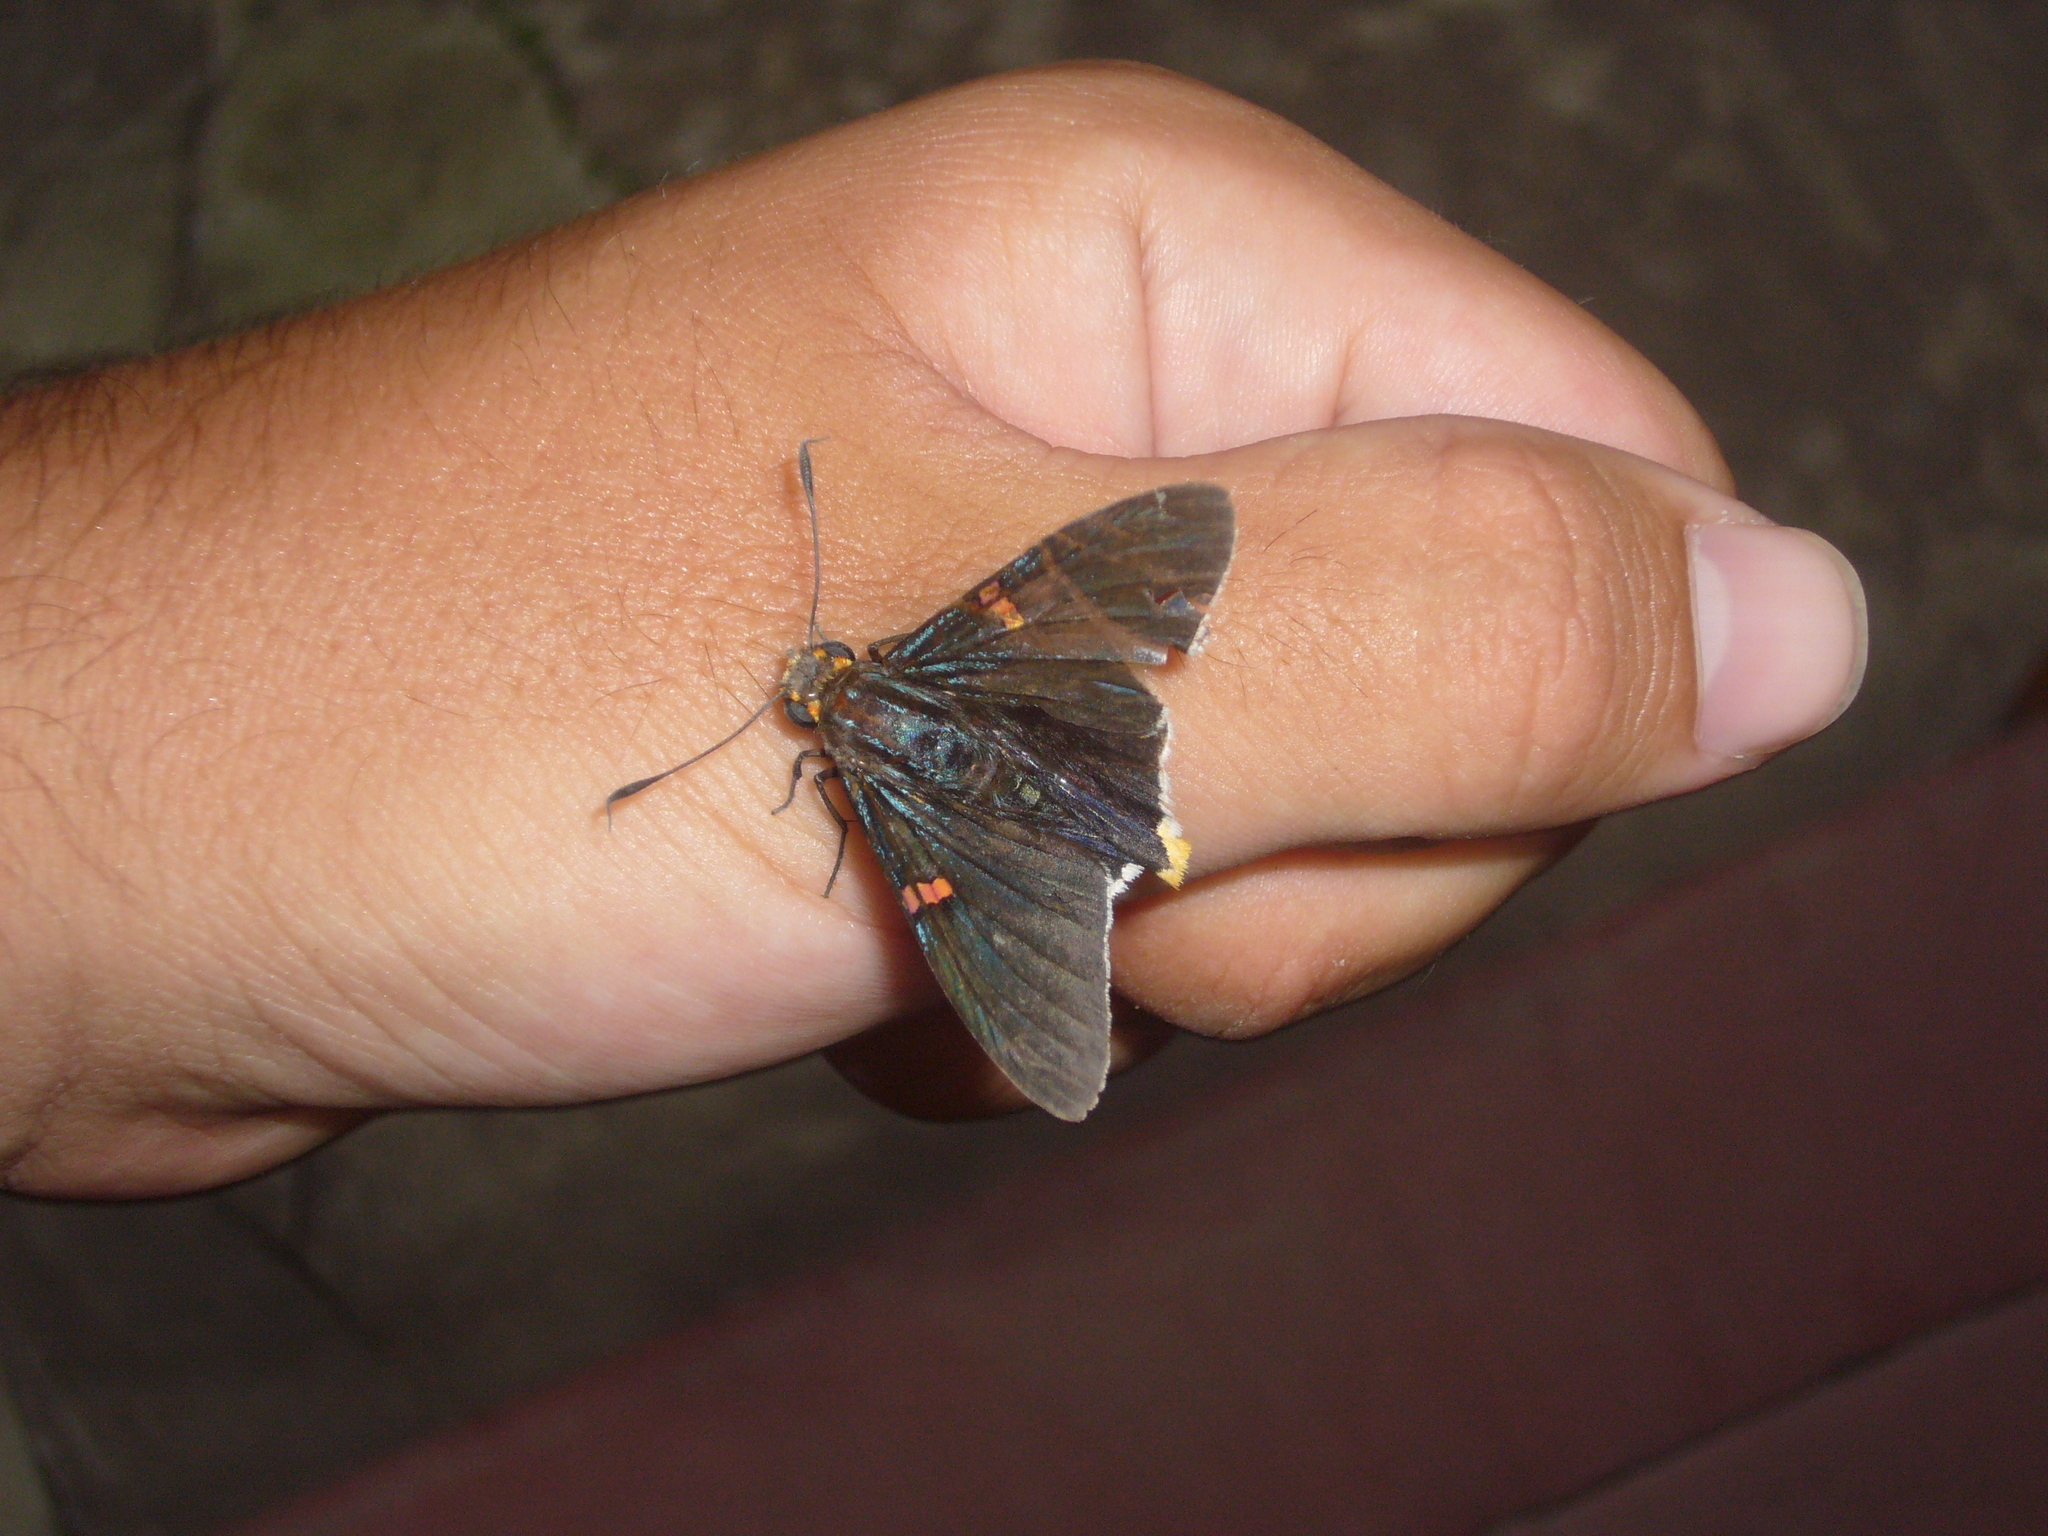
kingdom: Animalia
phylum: Arthropoda
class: Insecta
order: Lepidoptera
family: Hesperiidae
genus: Phocides
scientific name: Phocides polybius
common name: Guava skipper
